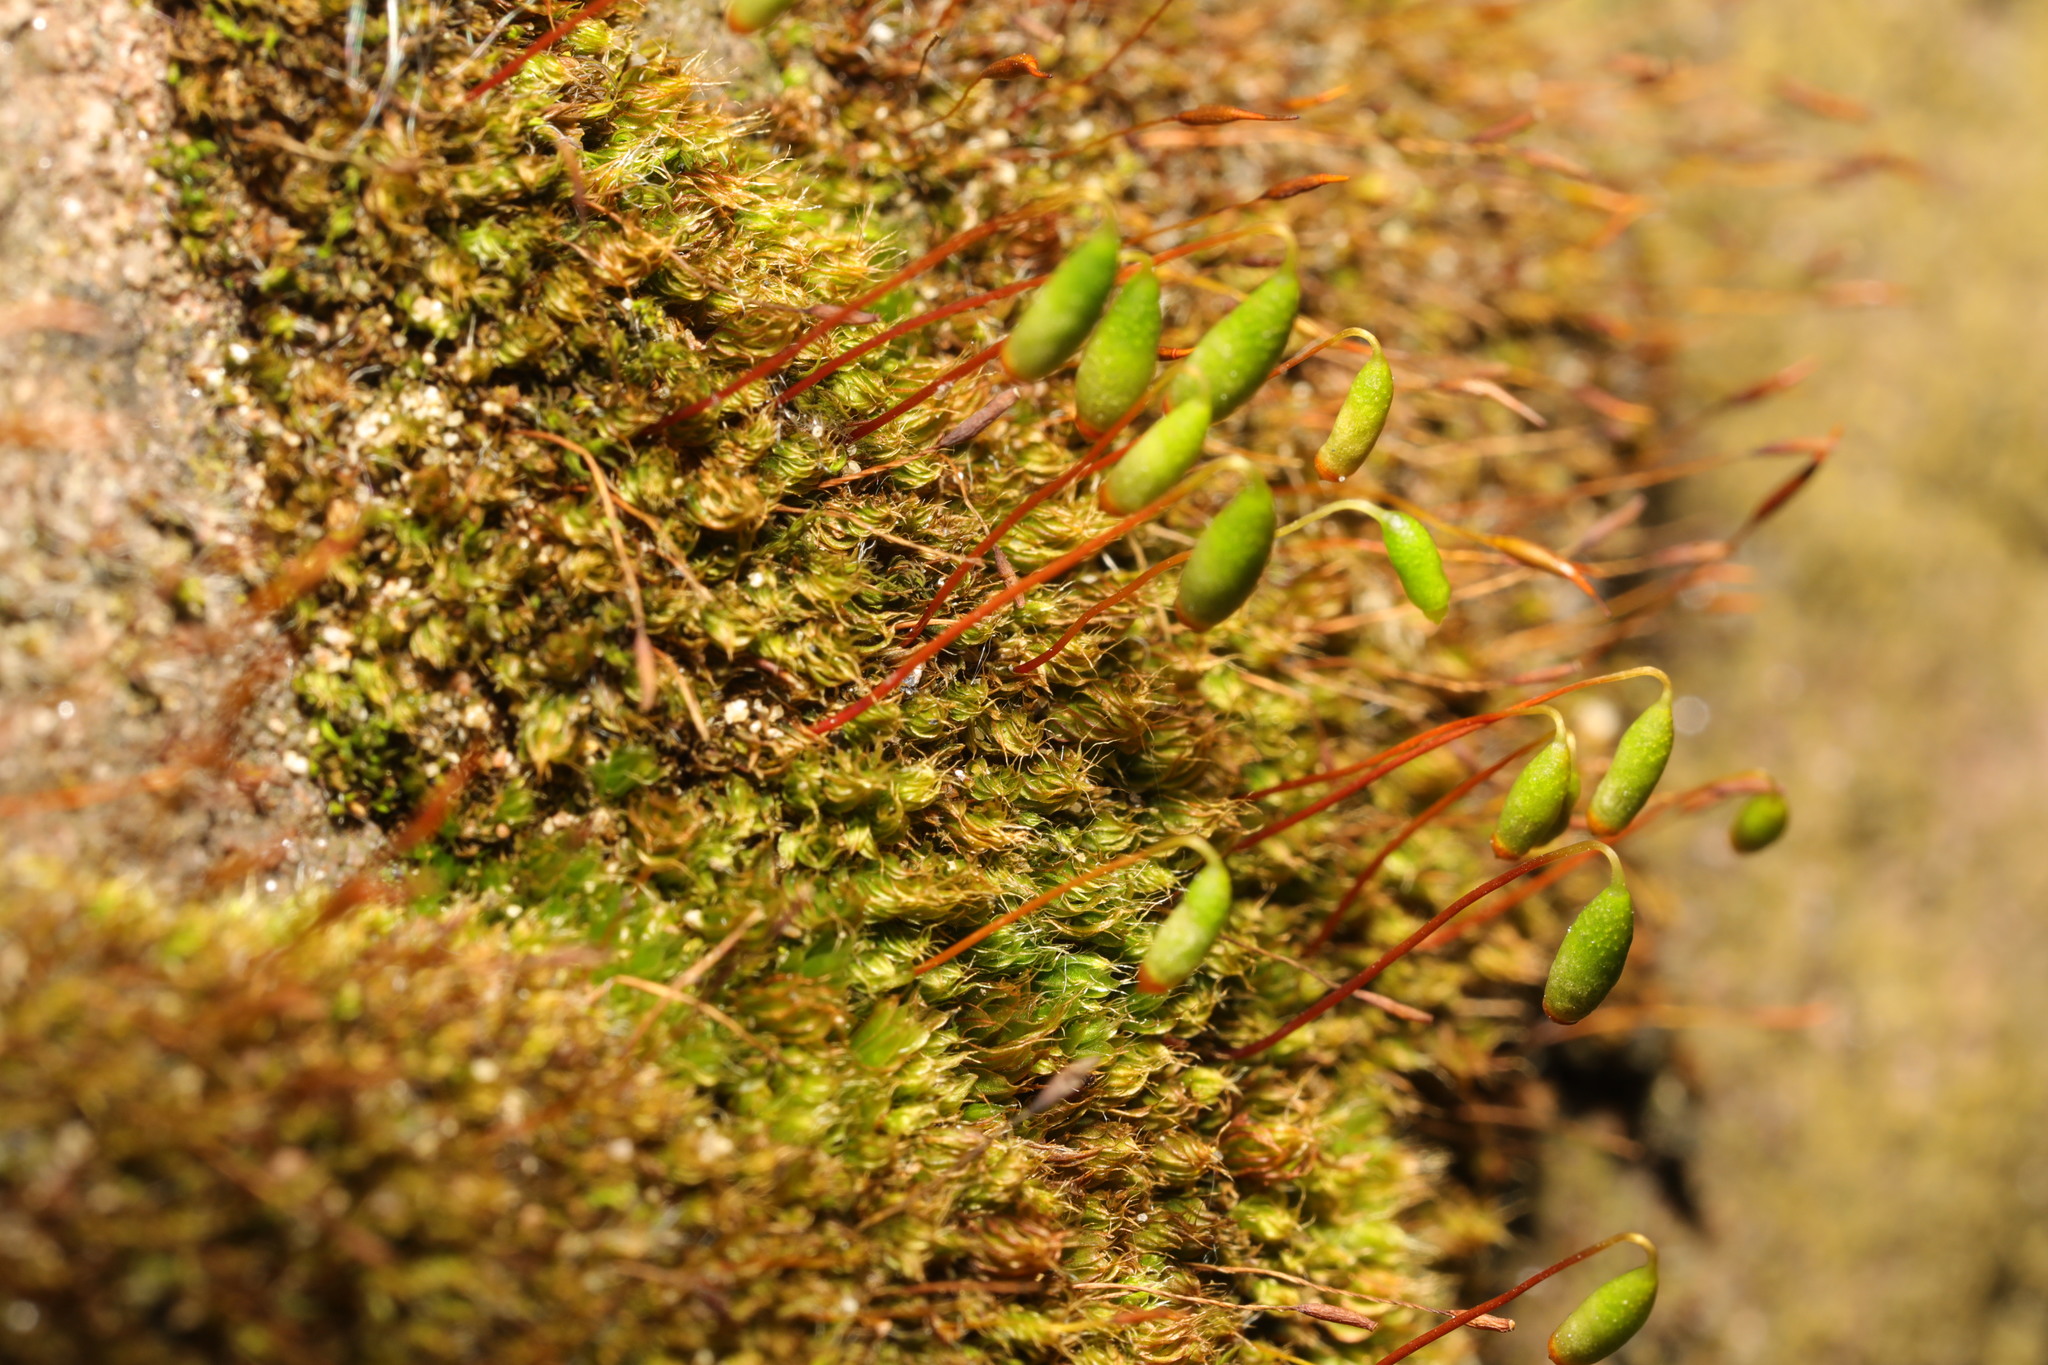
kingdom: Plantae
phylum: Bryophyta
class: Bryopsida
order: Bryales
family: Bryaceae
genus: Rosulabryum
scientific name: Rosulabryum capillare
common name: Capillary thread-moss
